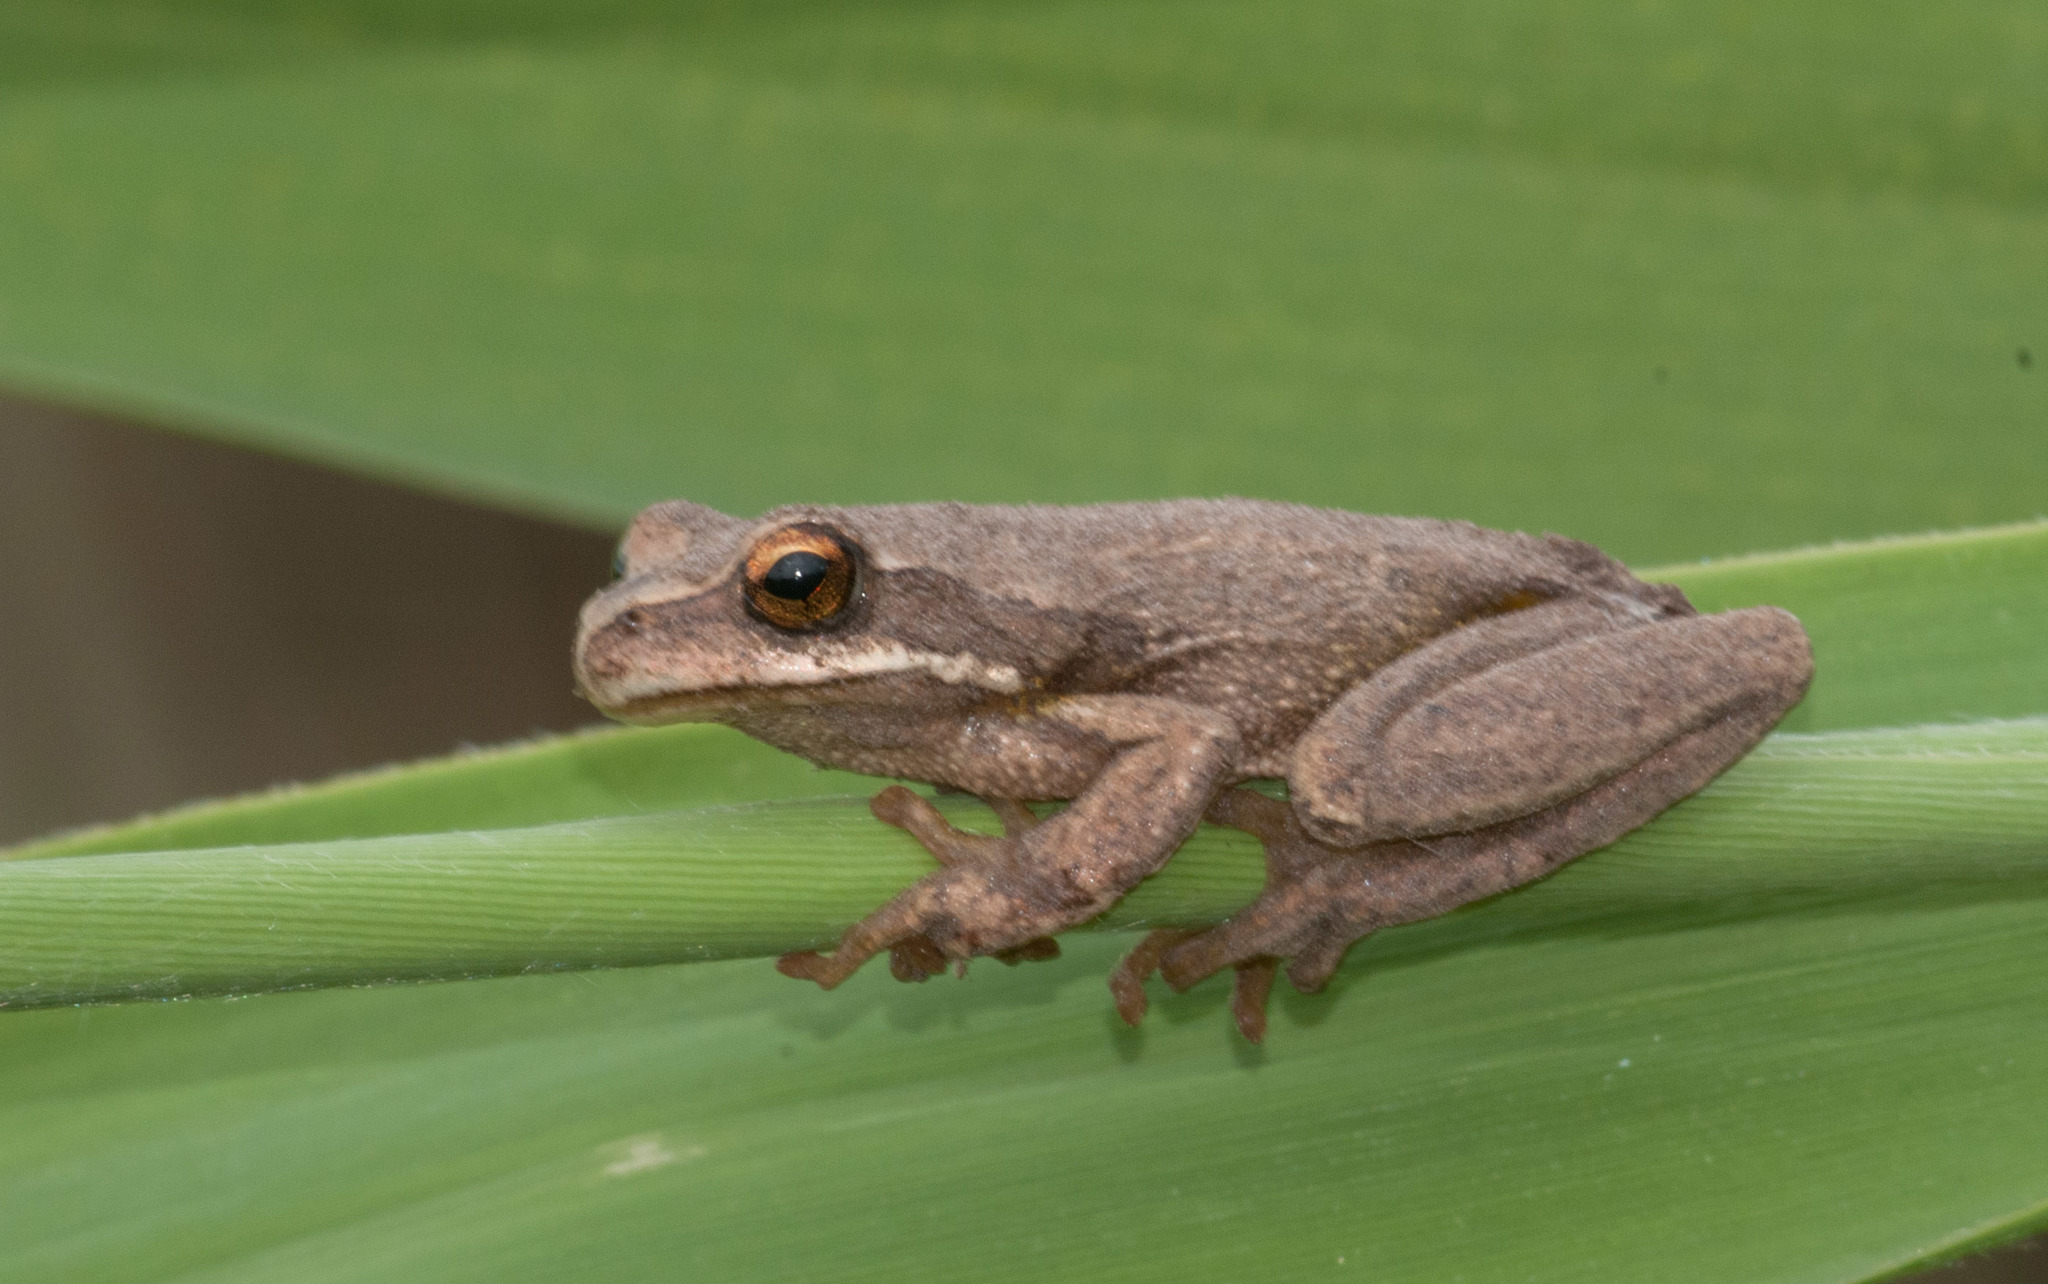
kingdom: Animalia
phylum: Chordata
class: Amphibia
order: Anura
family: Pelodryadidae
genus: Litoria
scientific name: Litoria ewingii
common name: Southern brown tree frog
